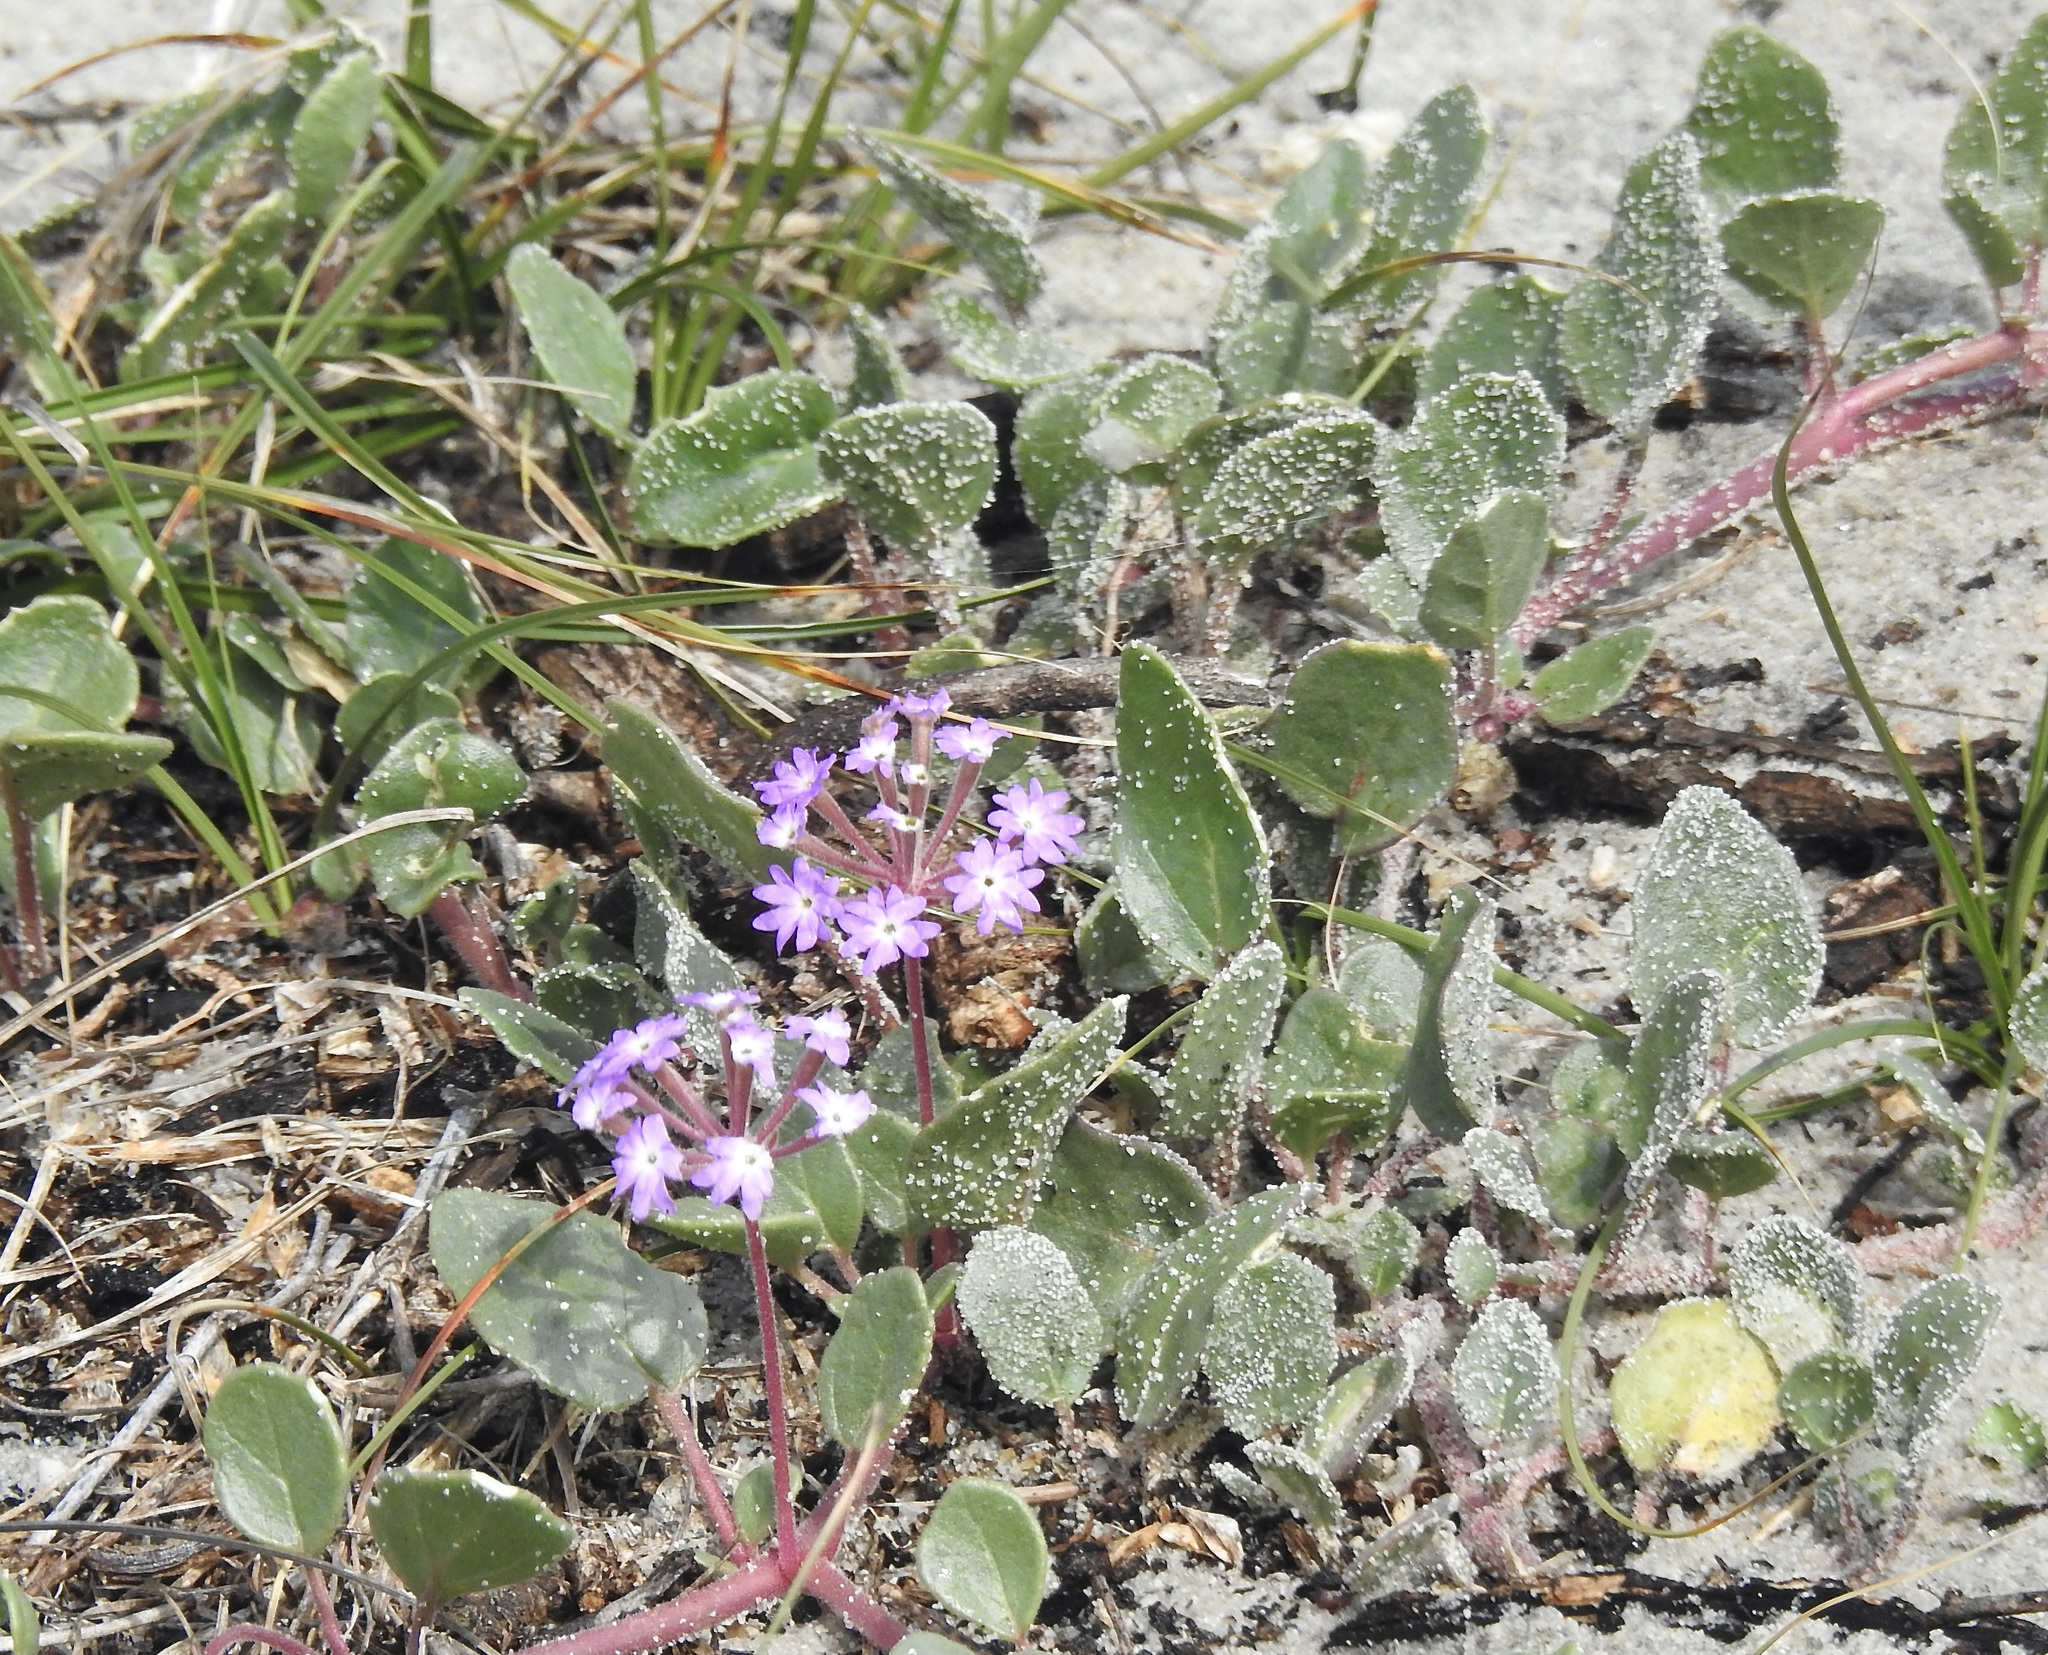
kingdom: Plantae
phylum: Tracheophyta
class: Magnoliopsida
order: Caryophyllales
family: Nyctaginaceae
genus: Abronia
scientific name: Abronia umbellata
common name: Sand-verbena
